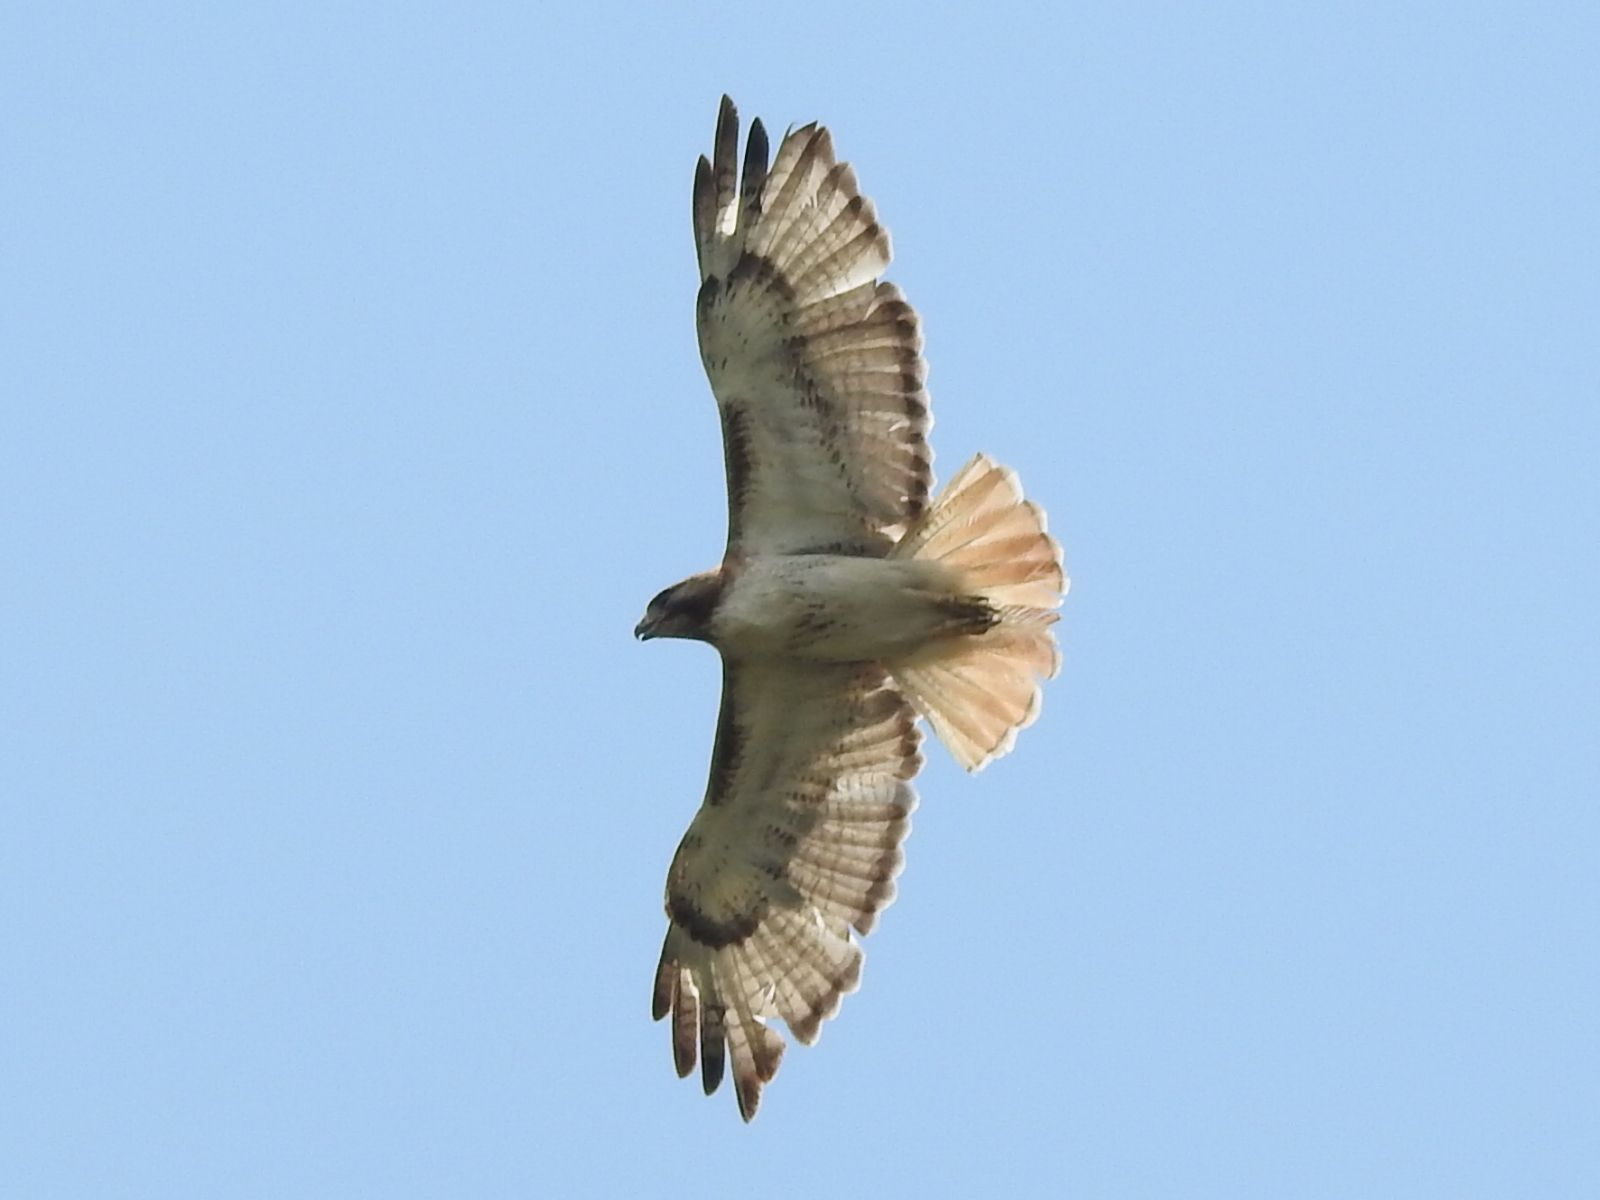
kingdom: Animalia
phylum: Chordata
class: Aves
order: Accipitriformes
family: Accipitridae
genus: Buteo
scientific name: Buteo jamaicensis
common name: Red-tailed hawk
